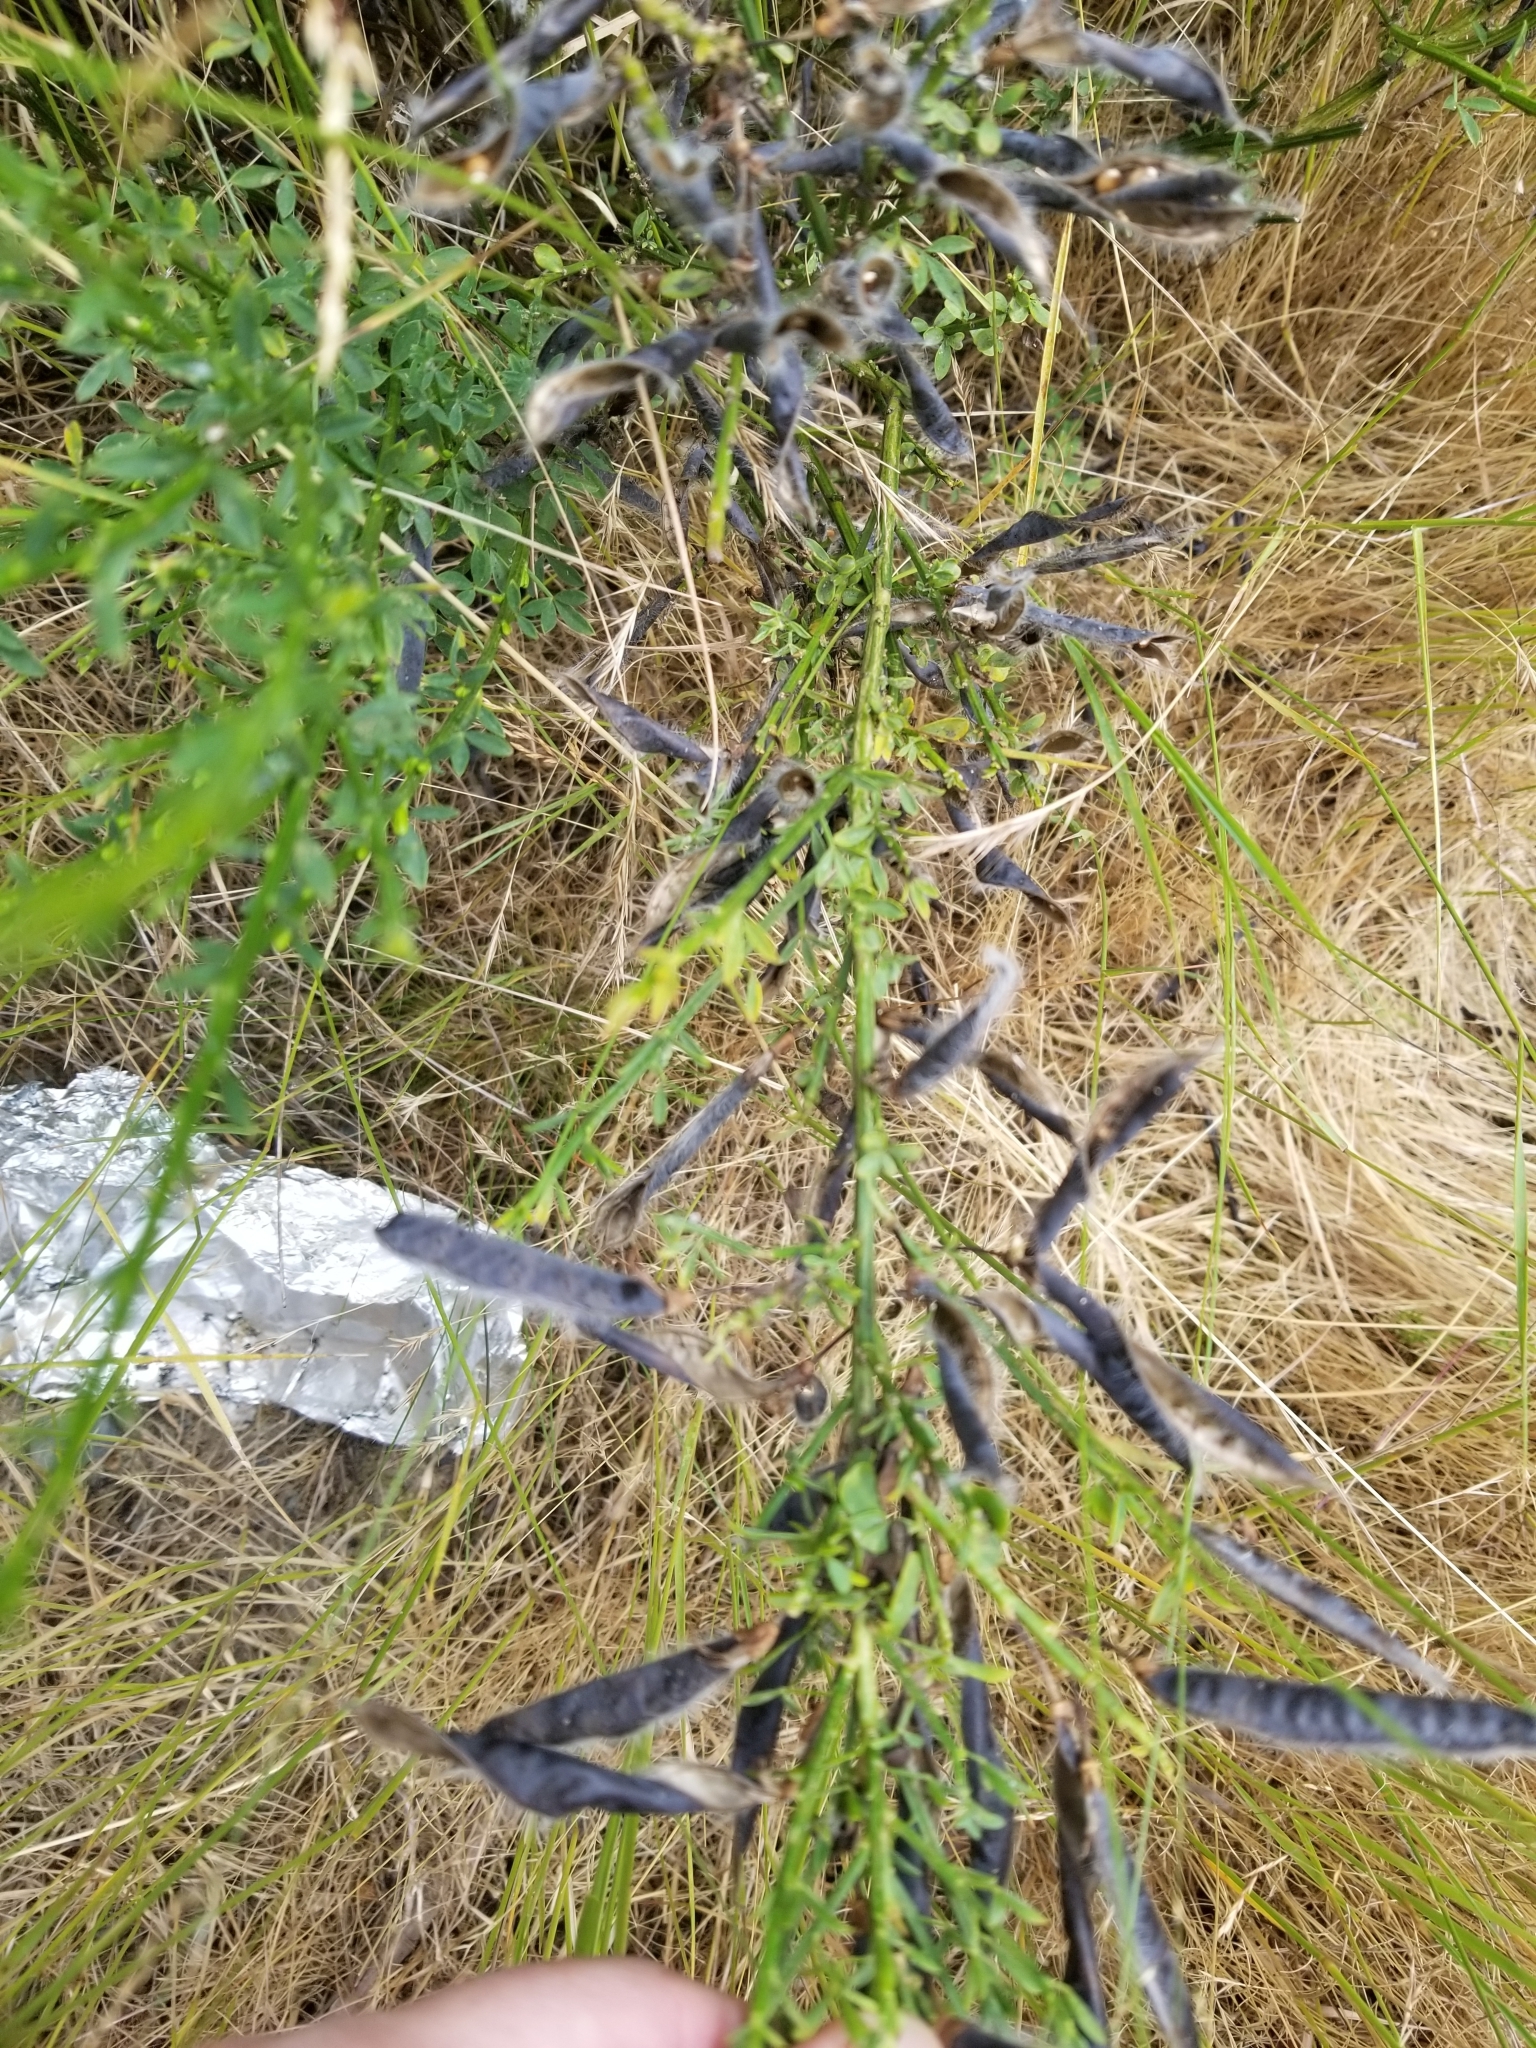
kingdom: Plantae
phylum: Tracheophyta
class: Magnoliopsida
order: Fabales
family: Fabaceae
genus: Cytisus
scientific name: Cytisus scoparius
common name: Scotch broom
